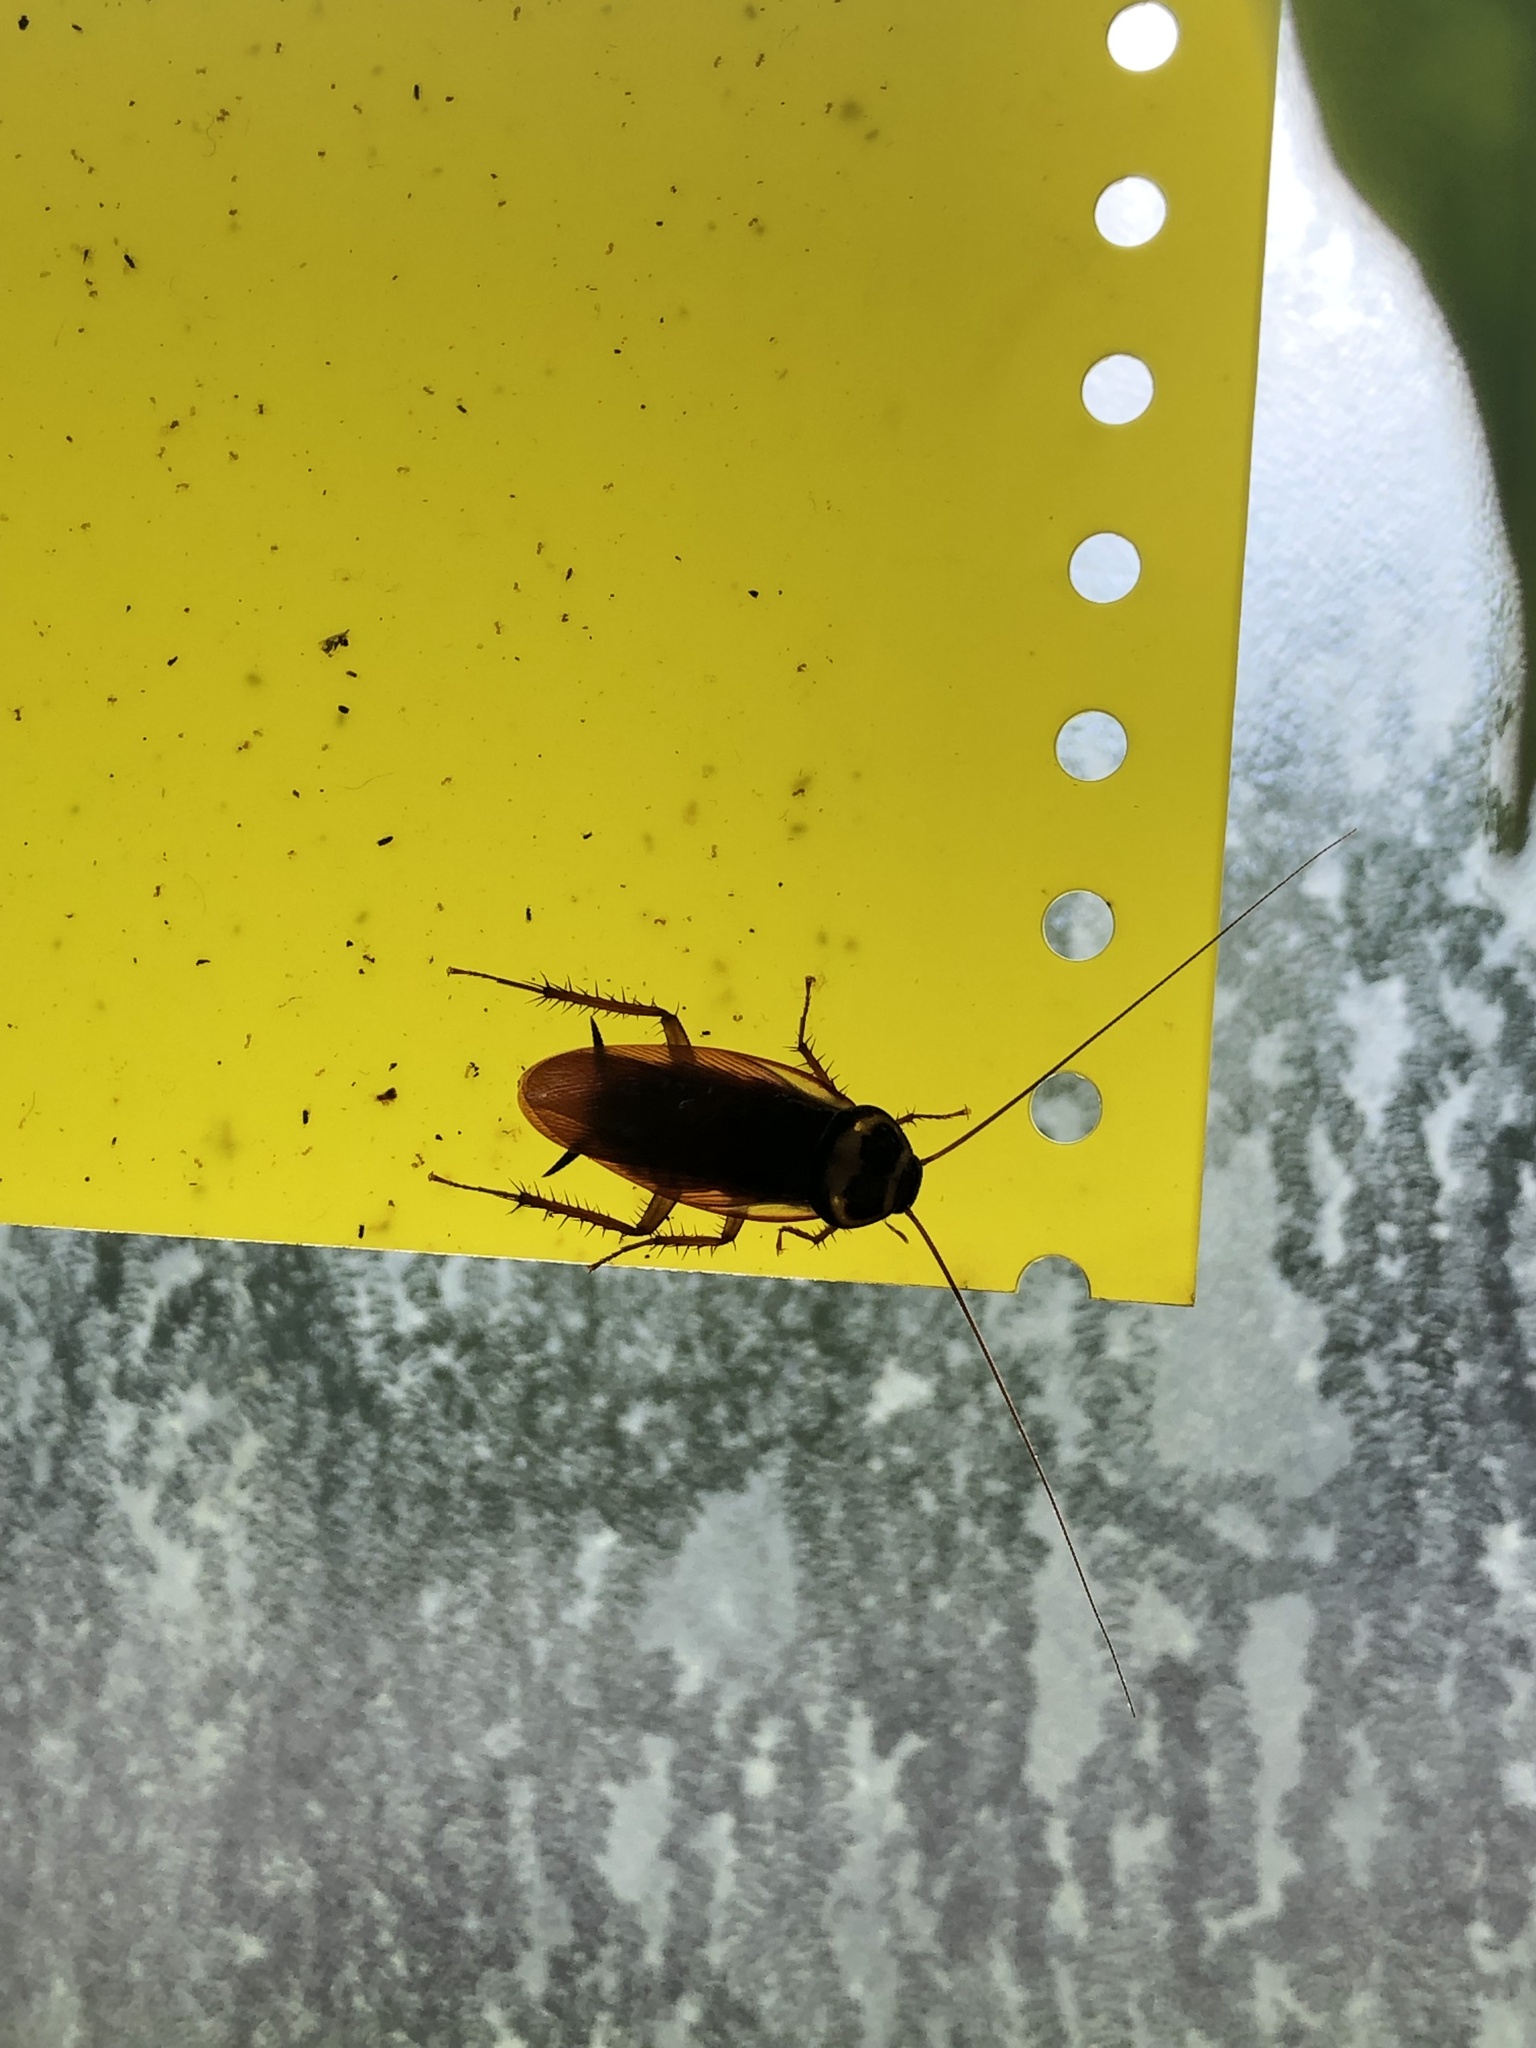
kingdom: Animalia
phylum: Arthropoda
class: Insecta
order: Blattodea
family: Blattidae
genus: Periplaneta
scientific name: Periplaneta australasiae
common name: Australian cockroach
